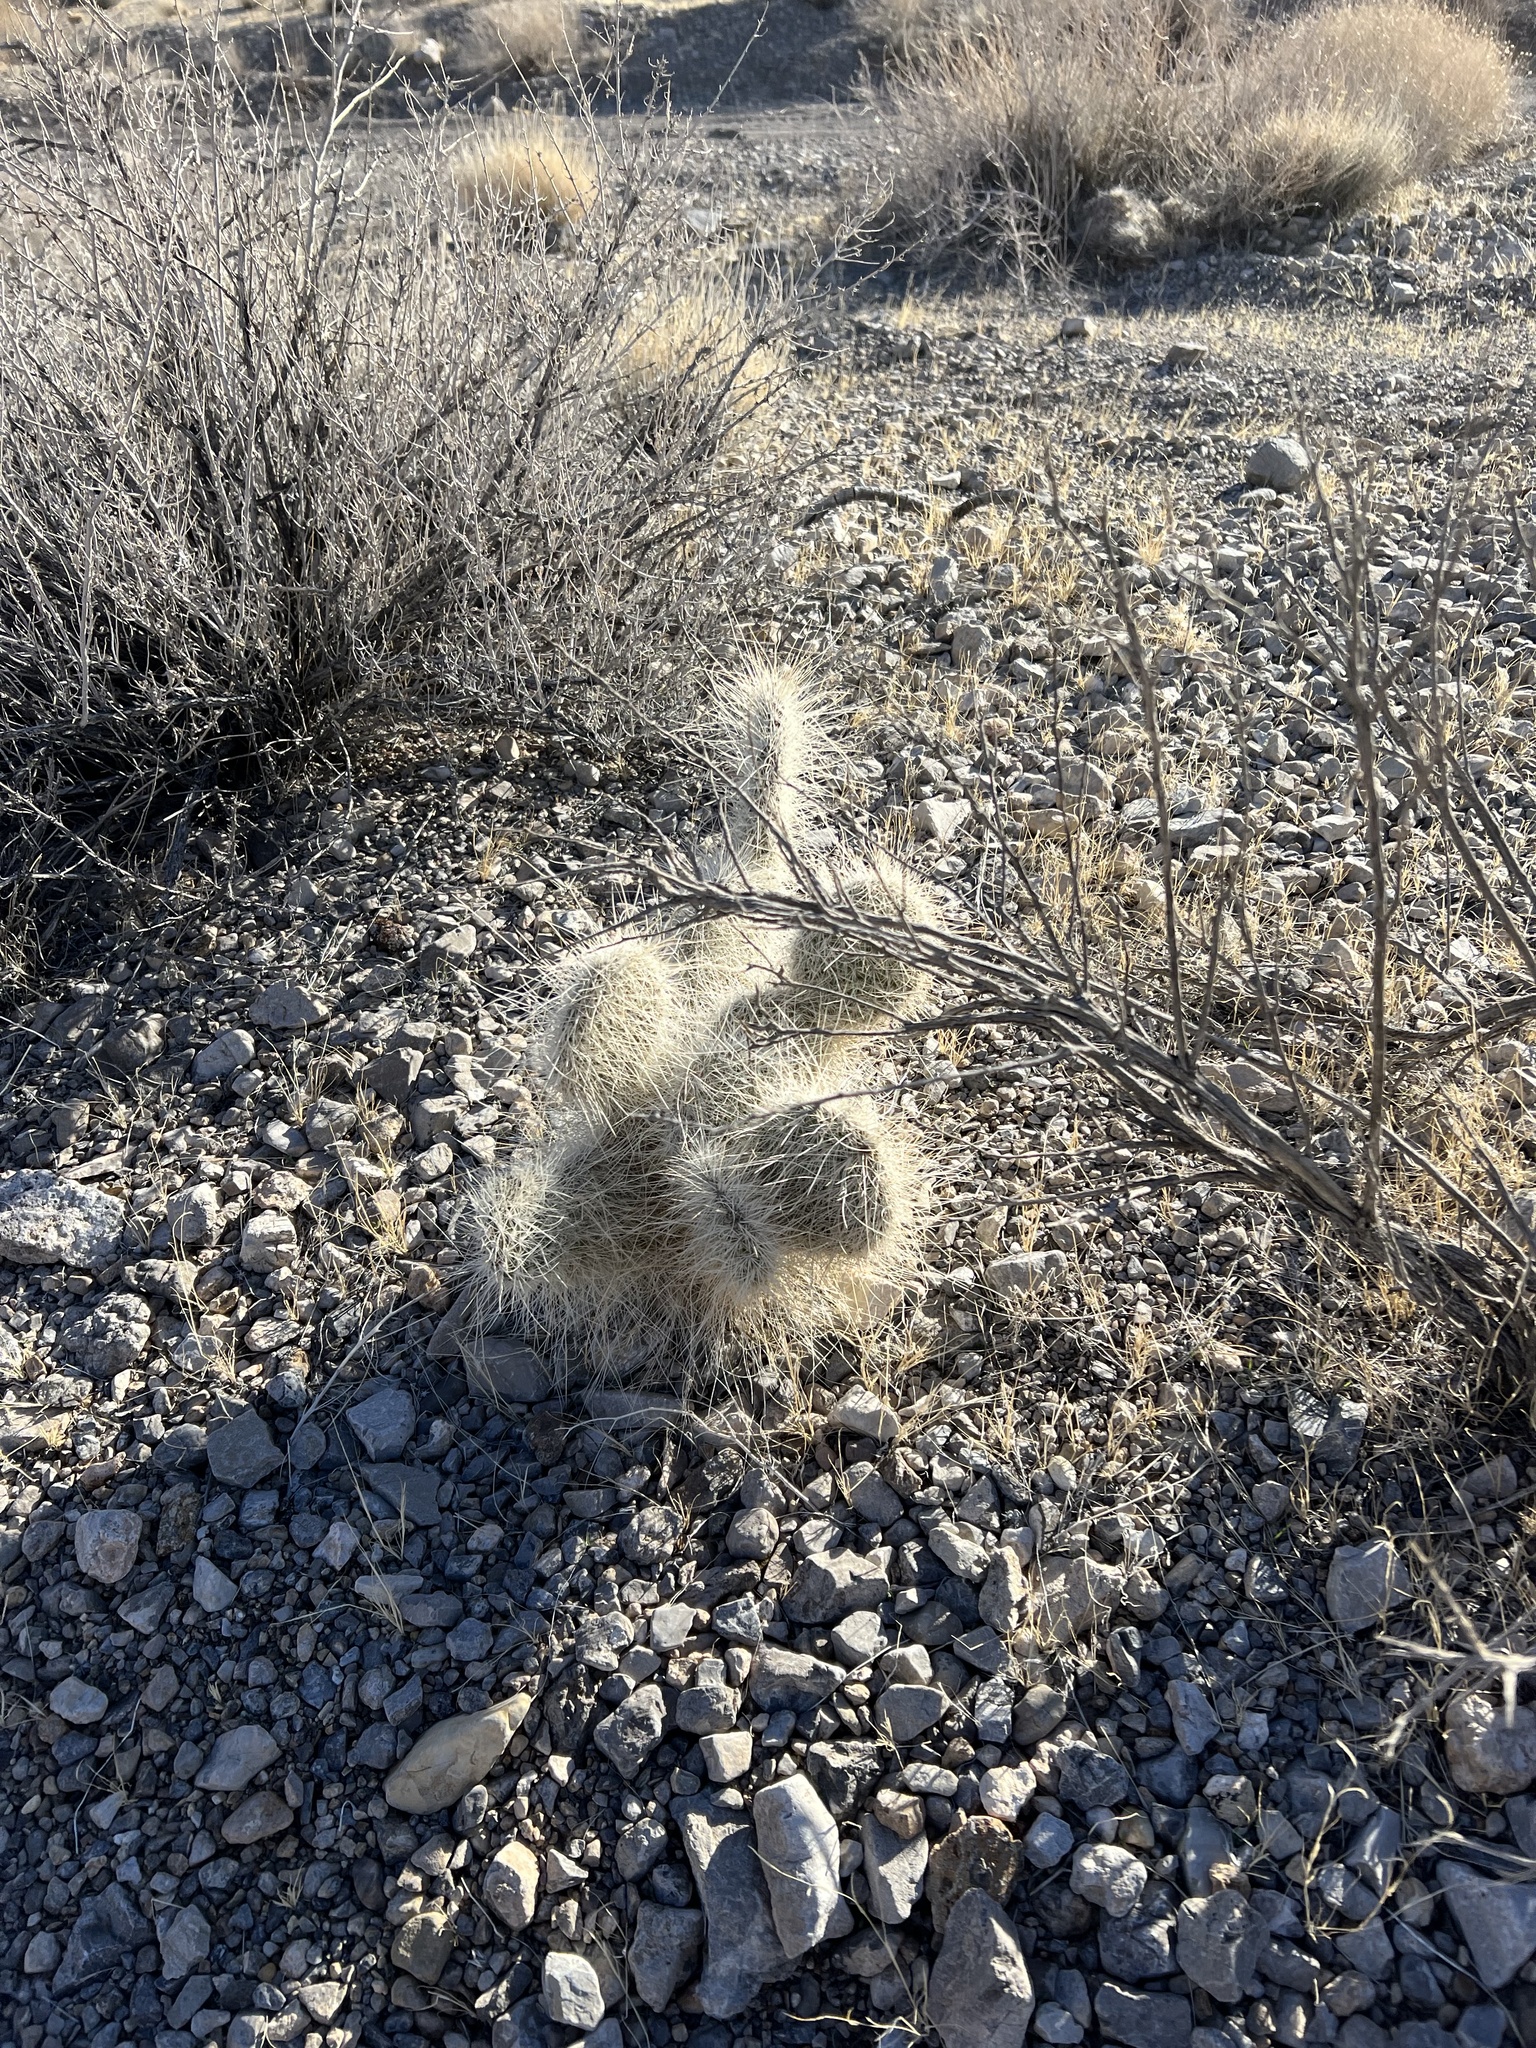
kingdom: Plantae
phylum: Tracheophyta
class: Magnoliopsida
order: Caryophyllales
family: Cactaceae
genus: Opuntia
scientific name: Opuntia polyacantha
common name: Plains prickly-pear
